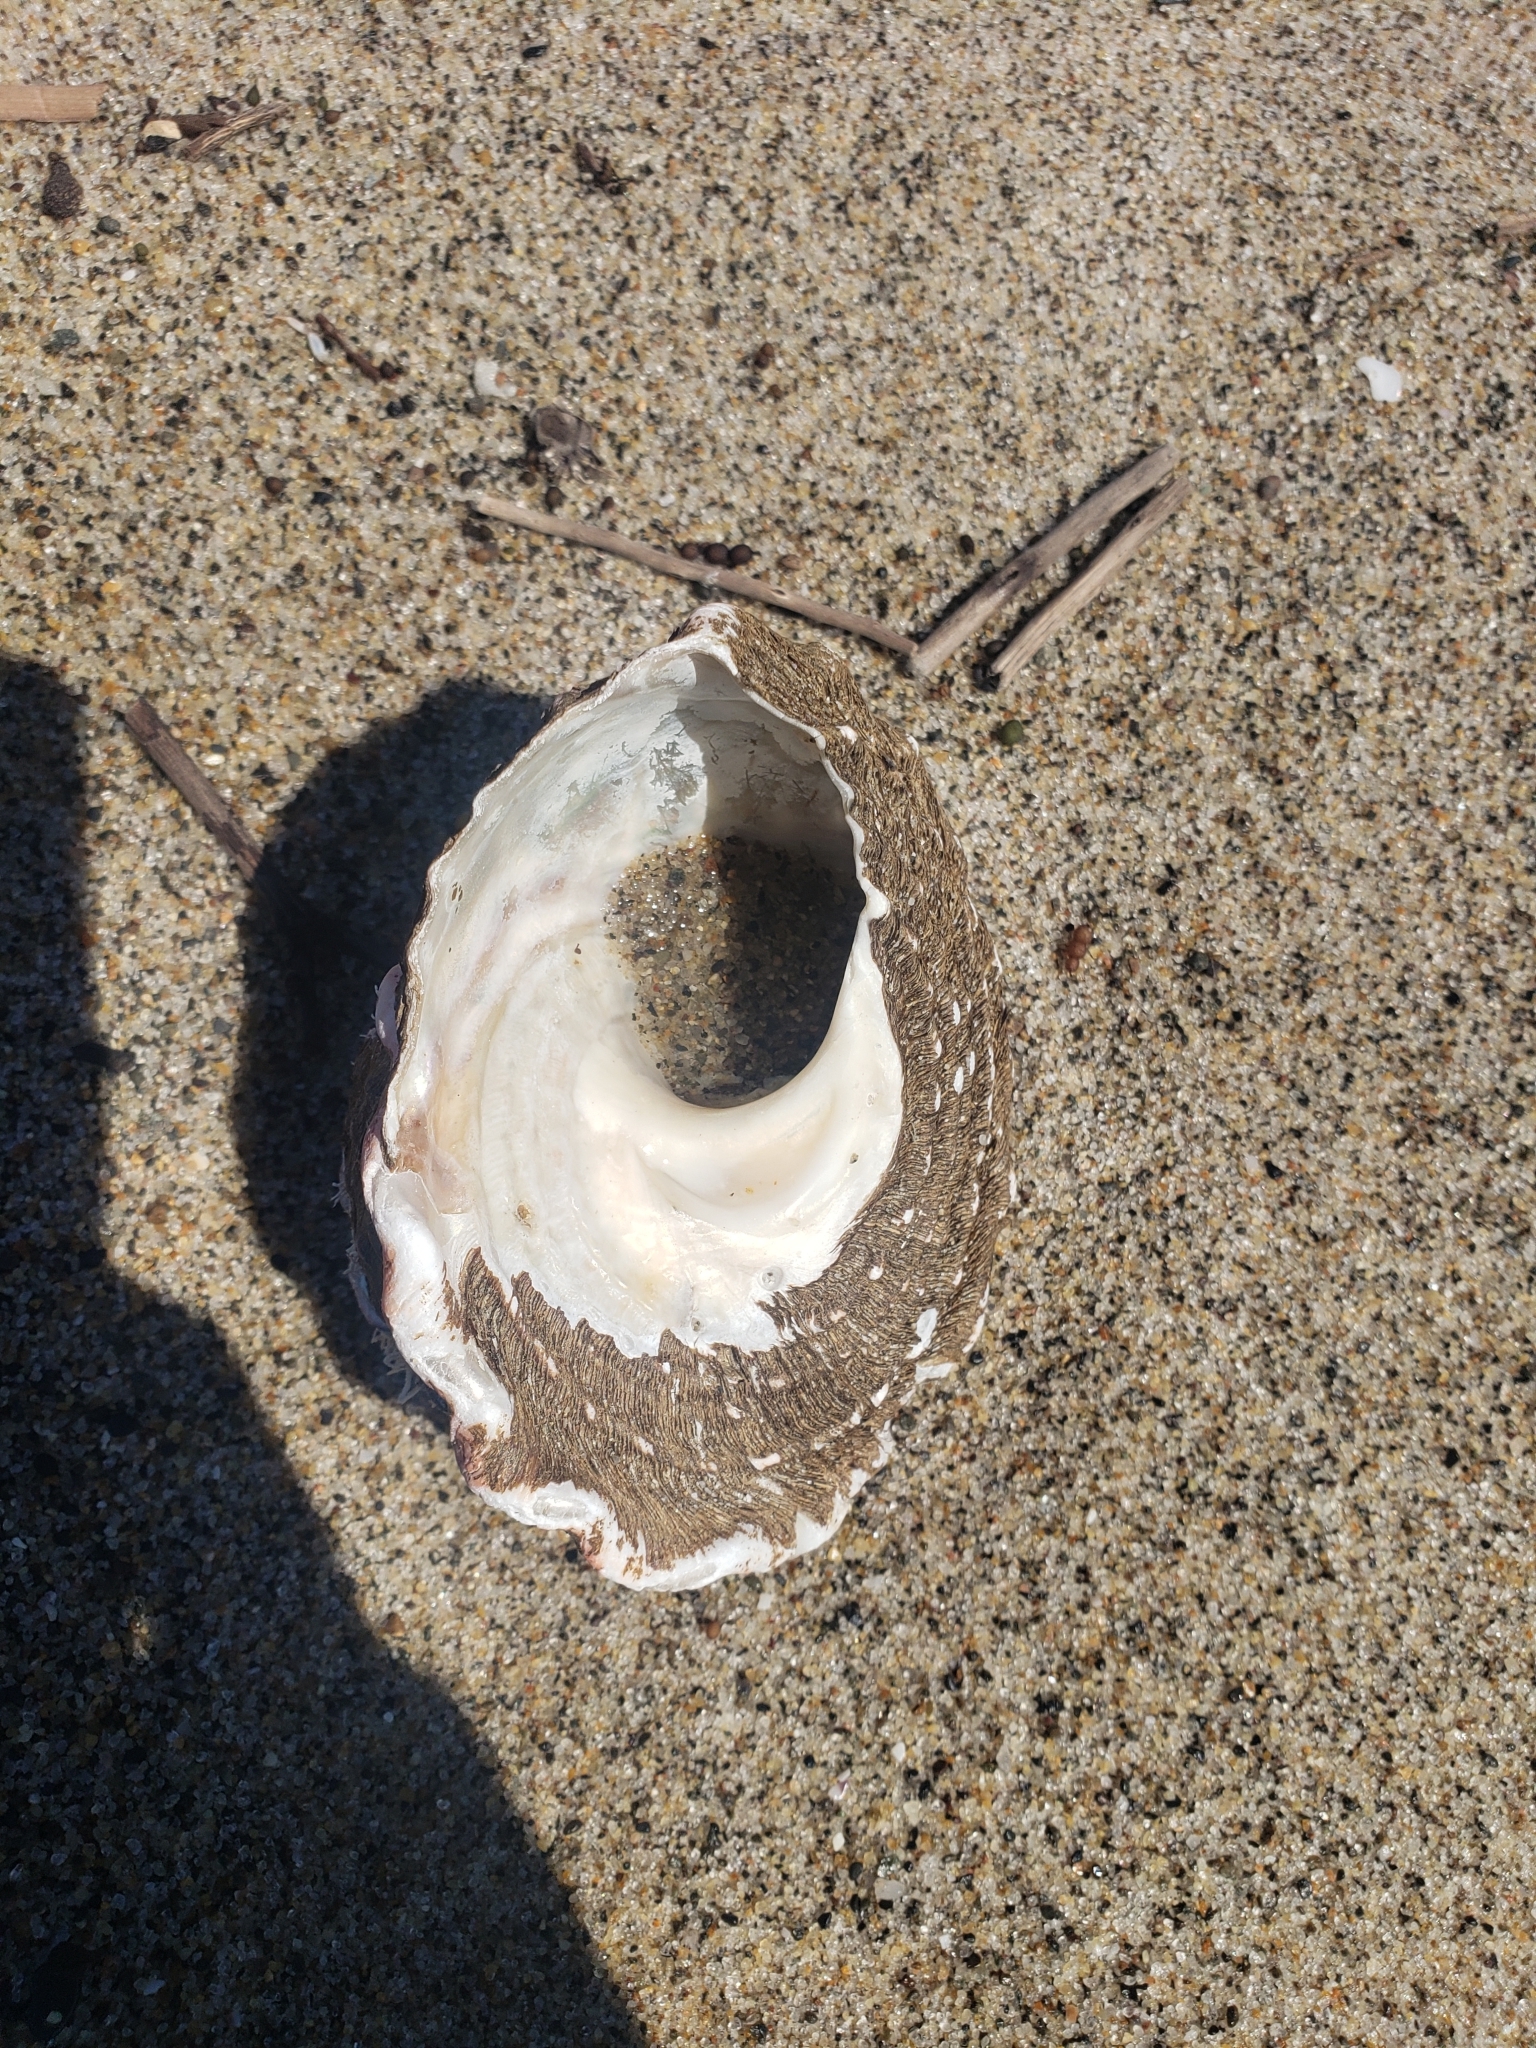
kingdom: Animalia
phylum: Mollusca
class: Gastropoda
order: Trochida
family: Turbinidae
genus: Megastraea
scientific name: Megastraea undosa
